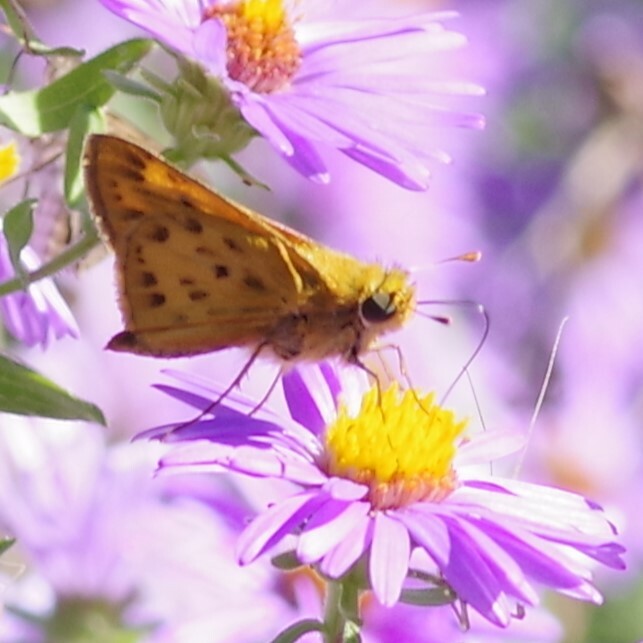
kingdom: Animalia
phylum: Arthropoda
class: Insecta
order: Lepidoptera
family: Hesperiidae
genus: Hylephila
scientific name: Hylephila phyleus
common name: Fiery skipper
